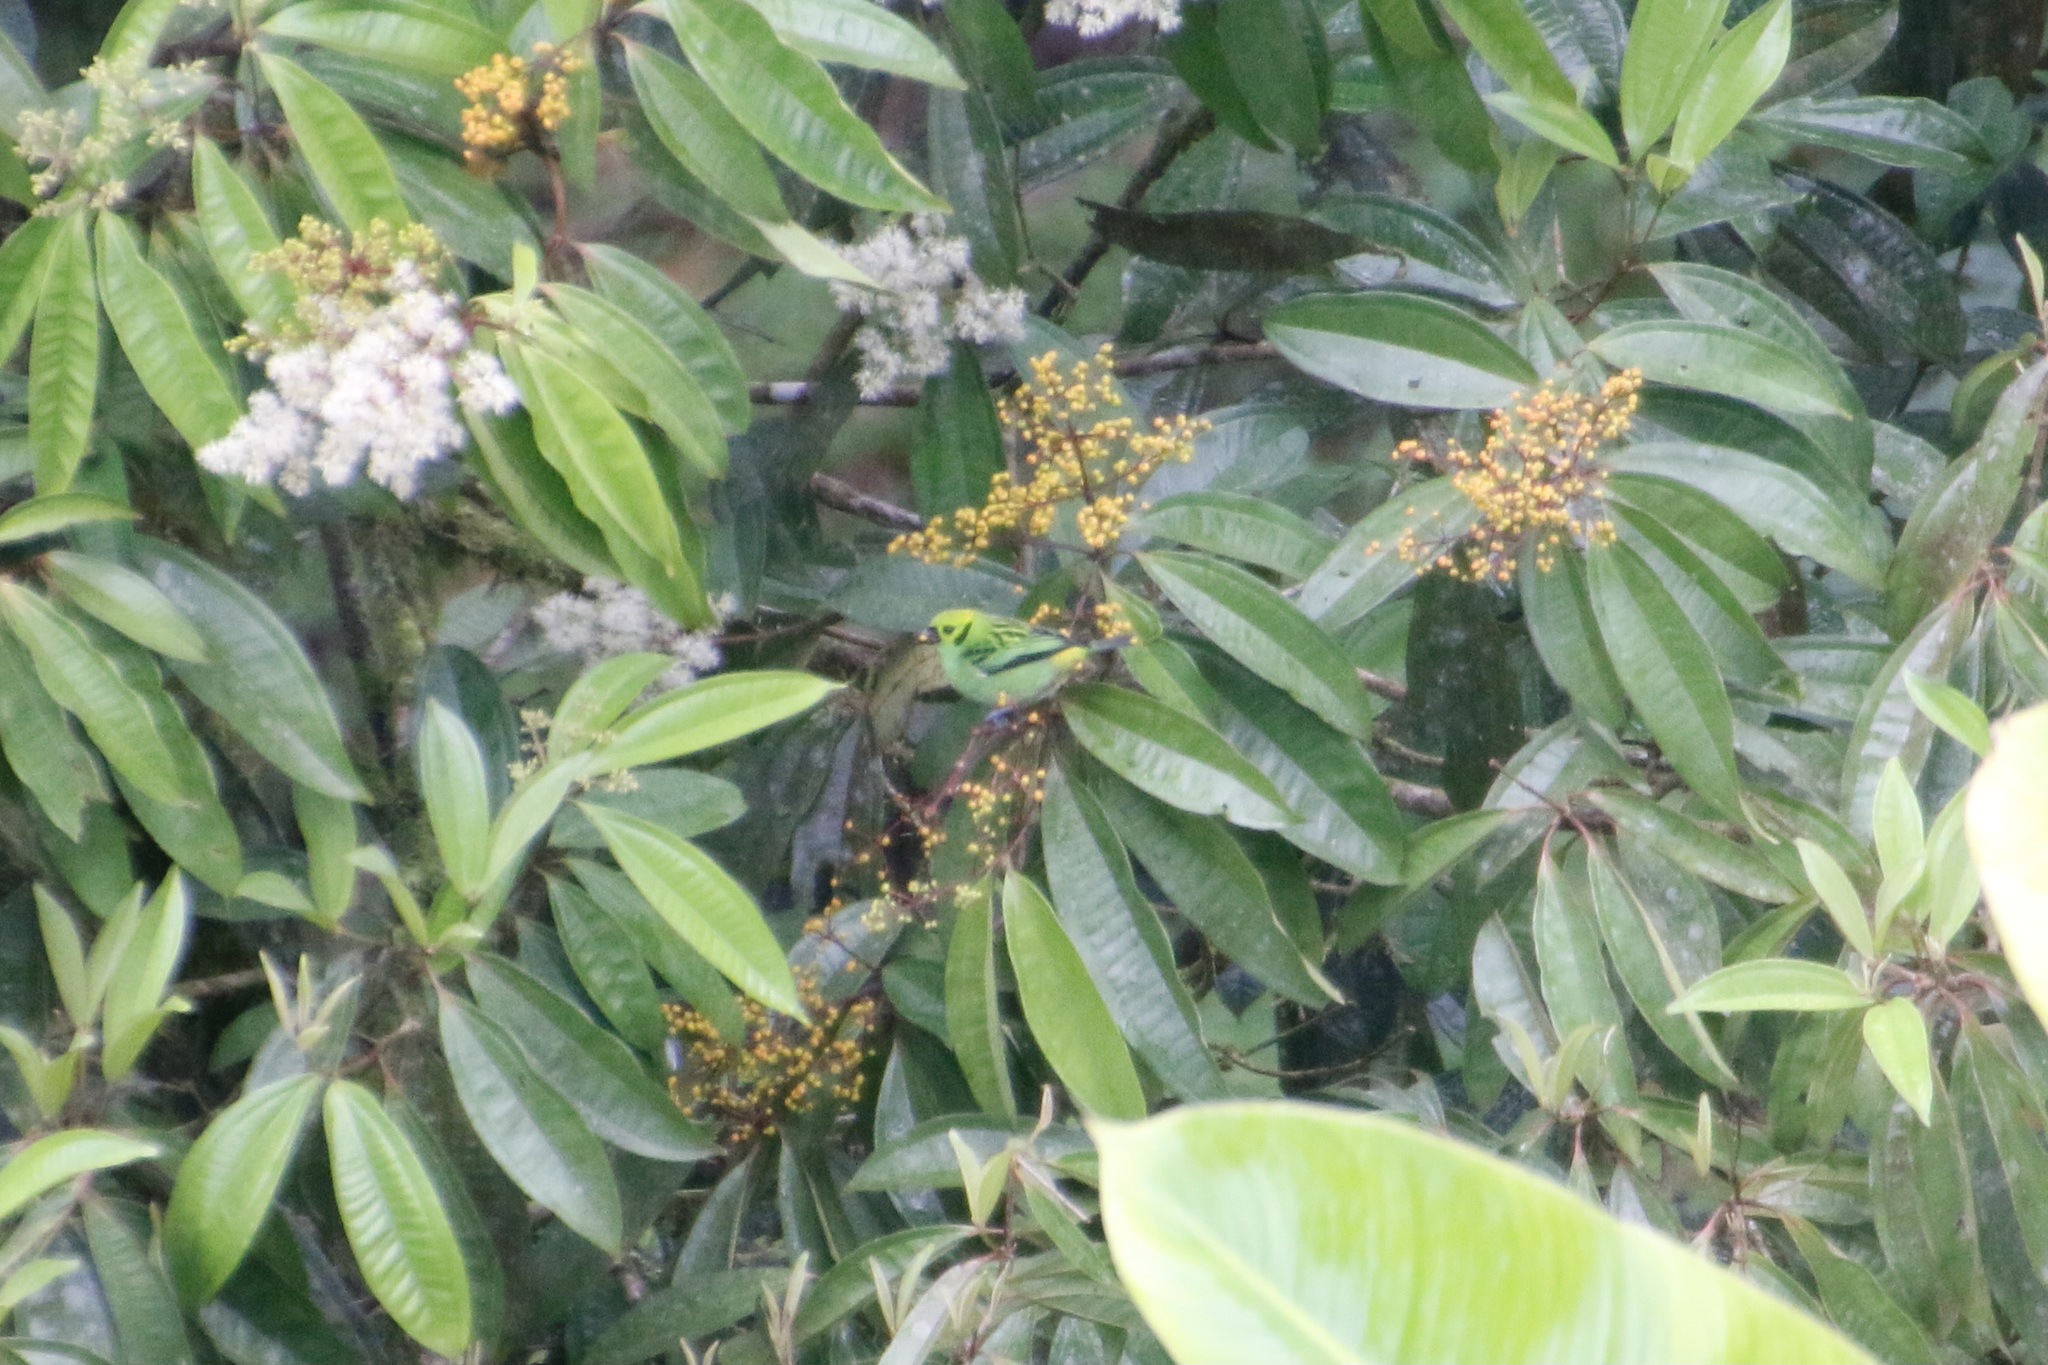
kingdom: Animalia
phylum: Chordata
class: Aves
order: Passeriformes
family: Thraupidae
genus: Tangara
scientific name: Tangara florida
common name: Emerald tanager
